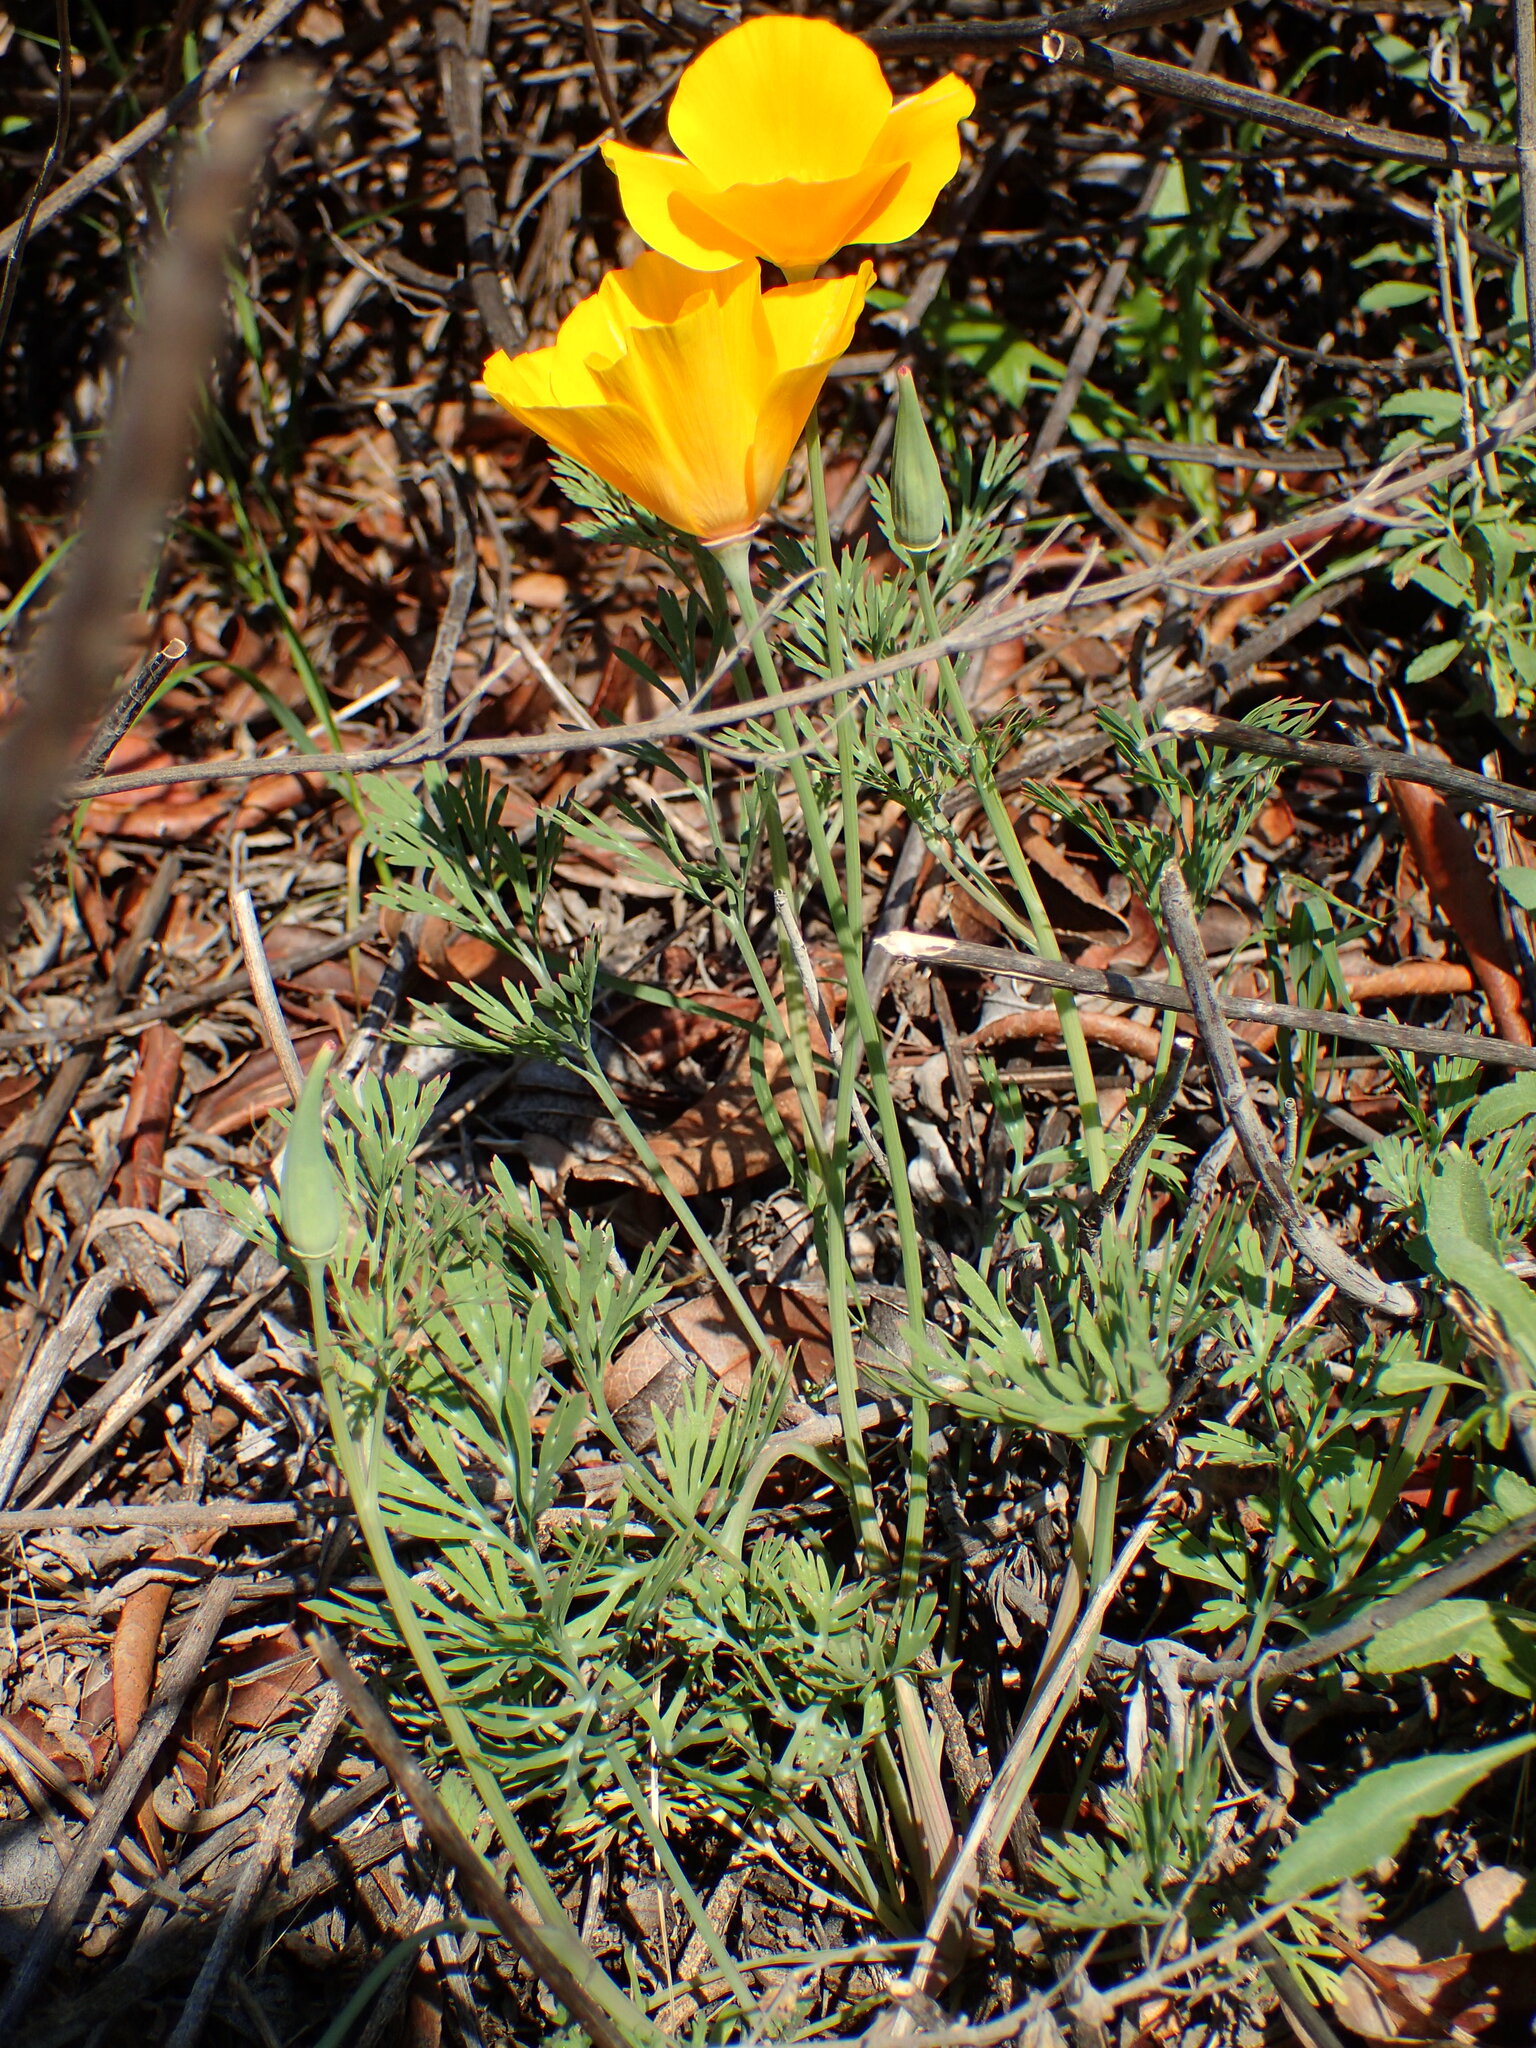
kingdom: Plantae
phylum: Tracheophyta
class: Magnoliopsida
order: Ranunculales
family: Papaveraceae
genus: Eschscholzia
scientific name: Eschscholzia californica
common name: California poppy
